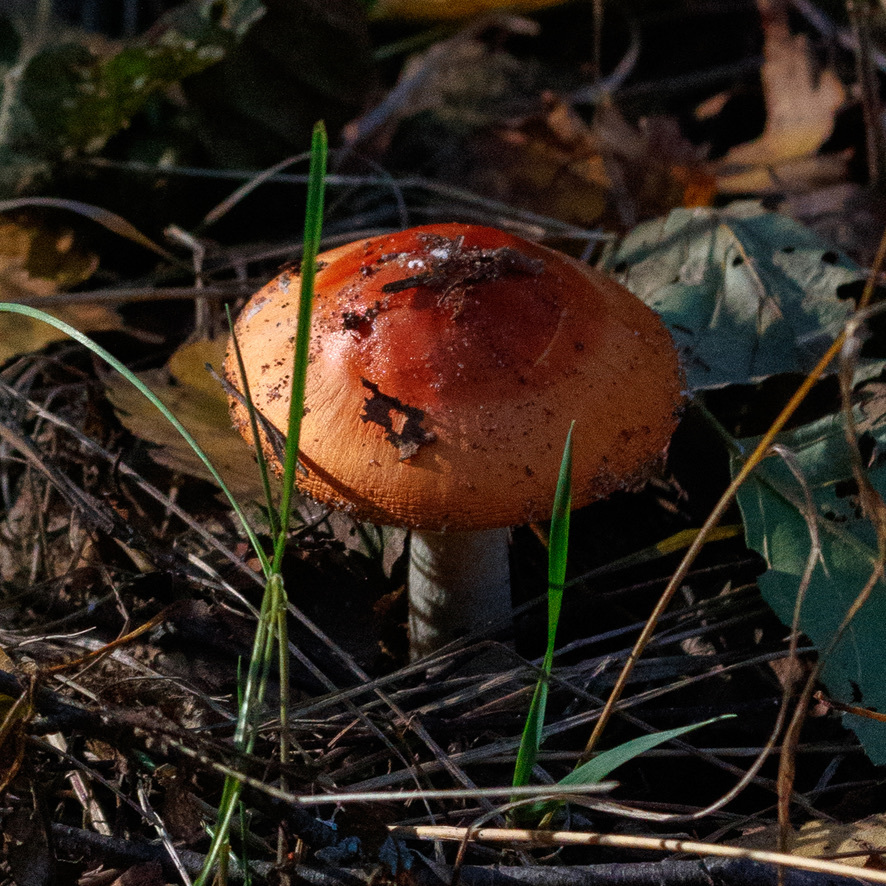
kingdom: Fungi
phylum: Basidiomycota
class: Agaricomycetes
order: Agaricales
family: Amanitaceae
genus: Amanita
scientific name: Amanita fulva
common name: Tawny grisette
